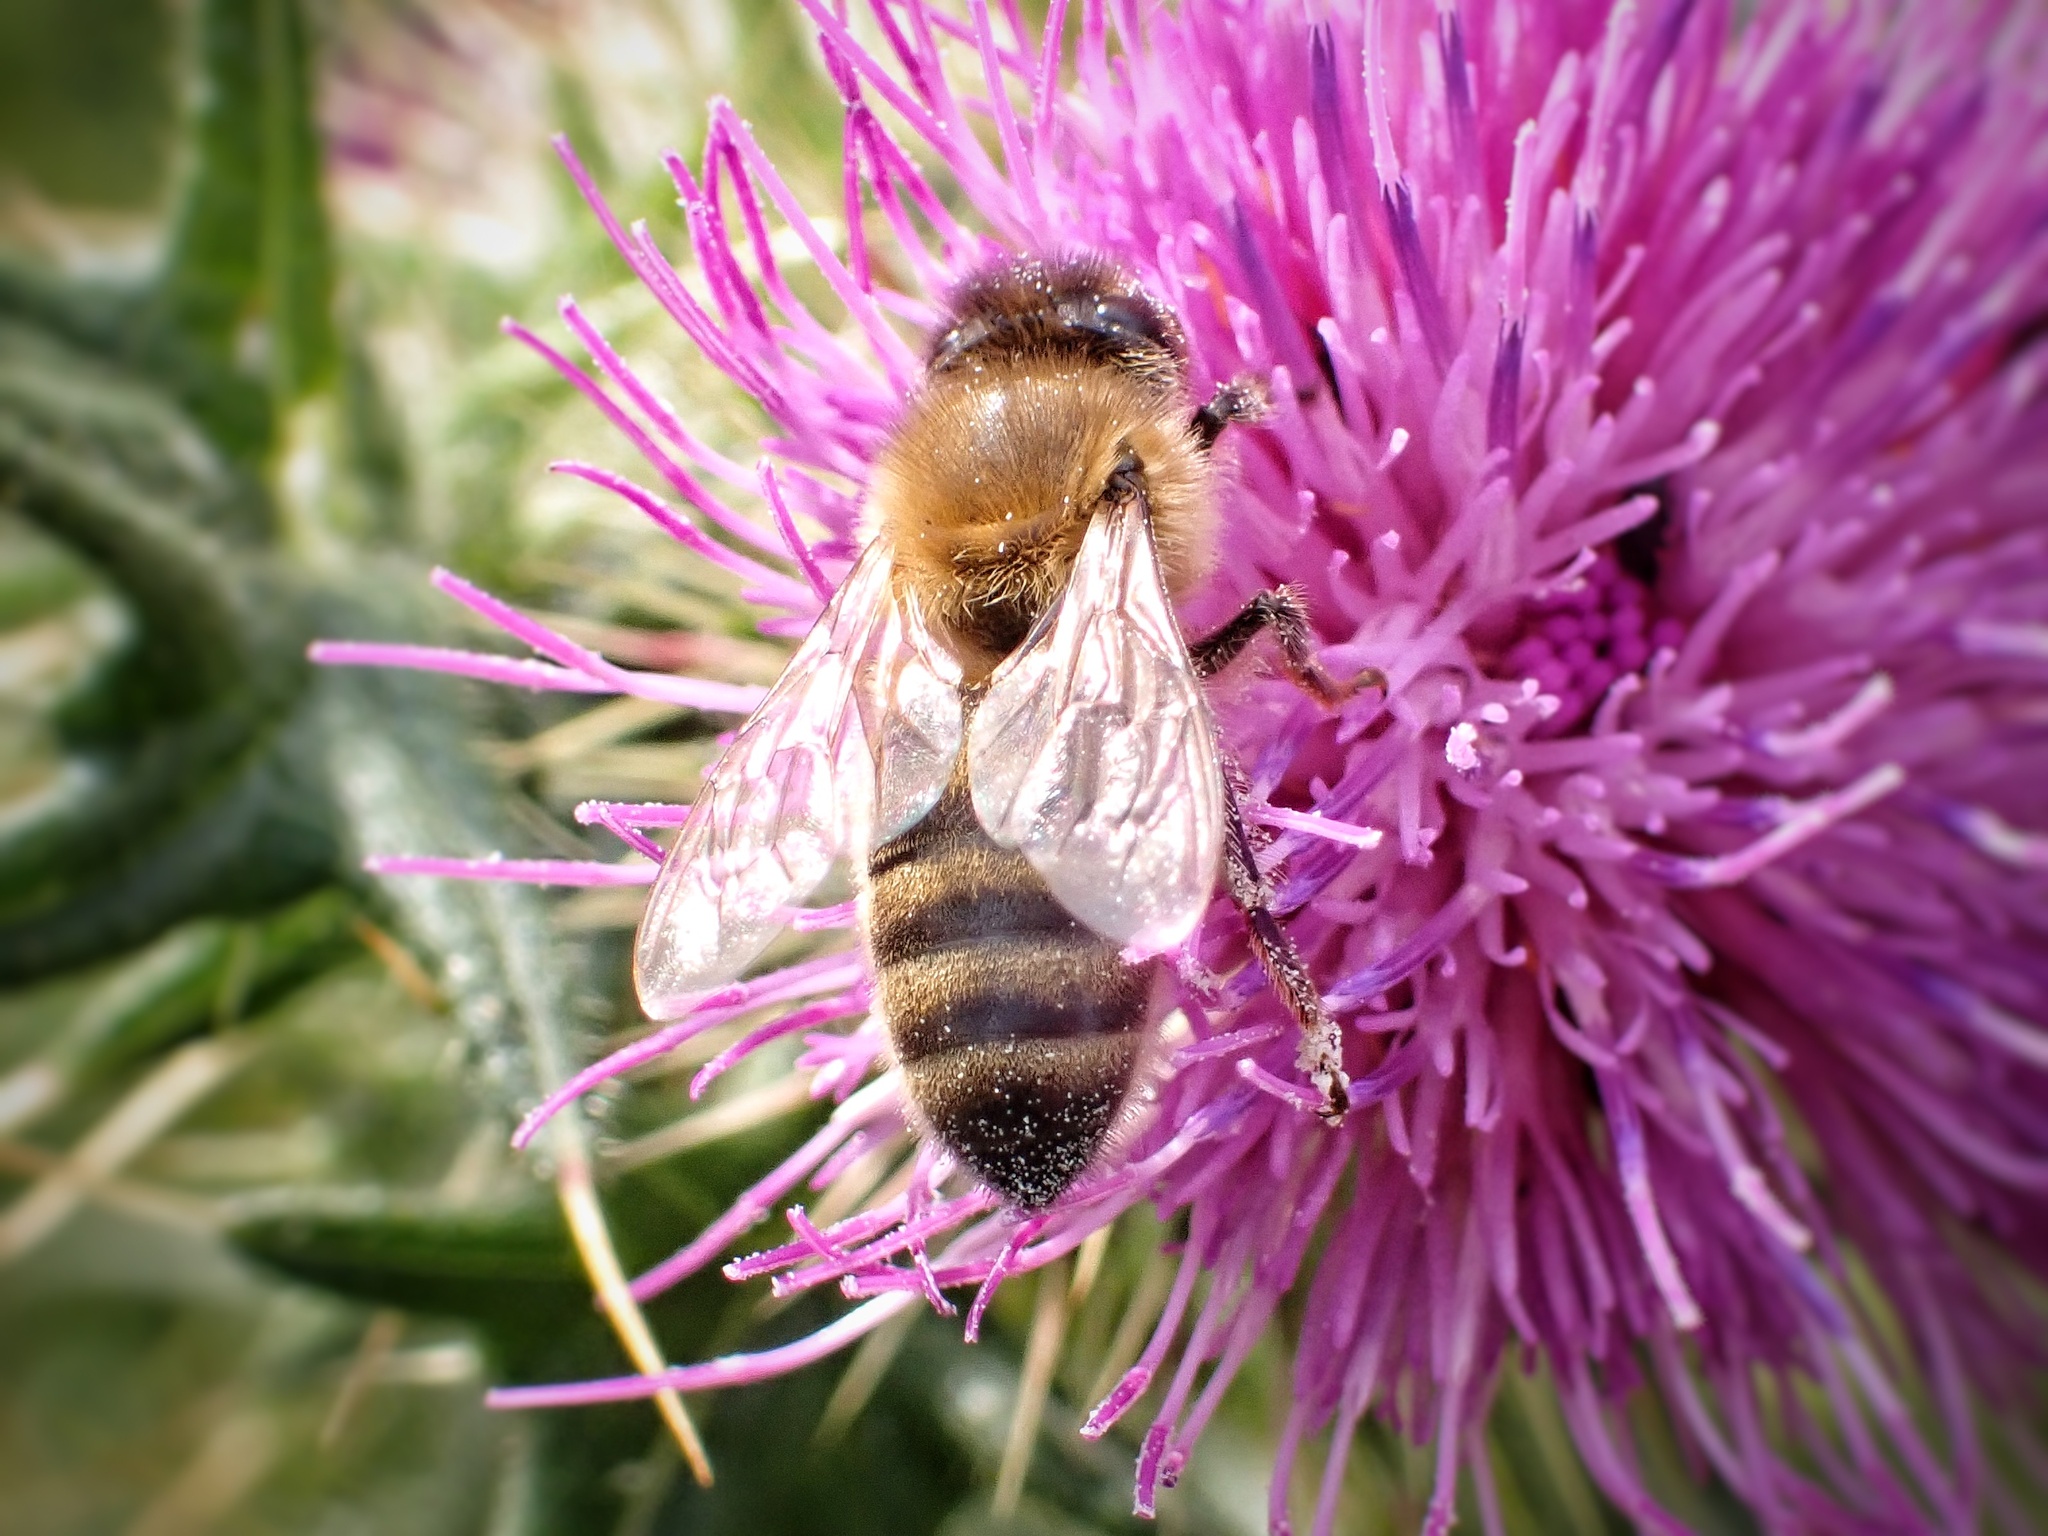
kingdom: Animalia
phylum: Arthropoda
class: Insecta
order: Hymenoptera
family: Apidae
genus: Apis
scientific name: Apis mellifera
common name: Honey bee
